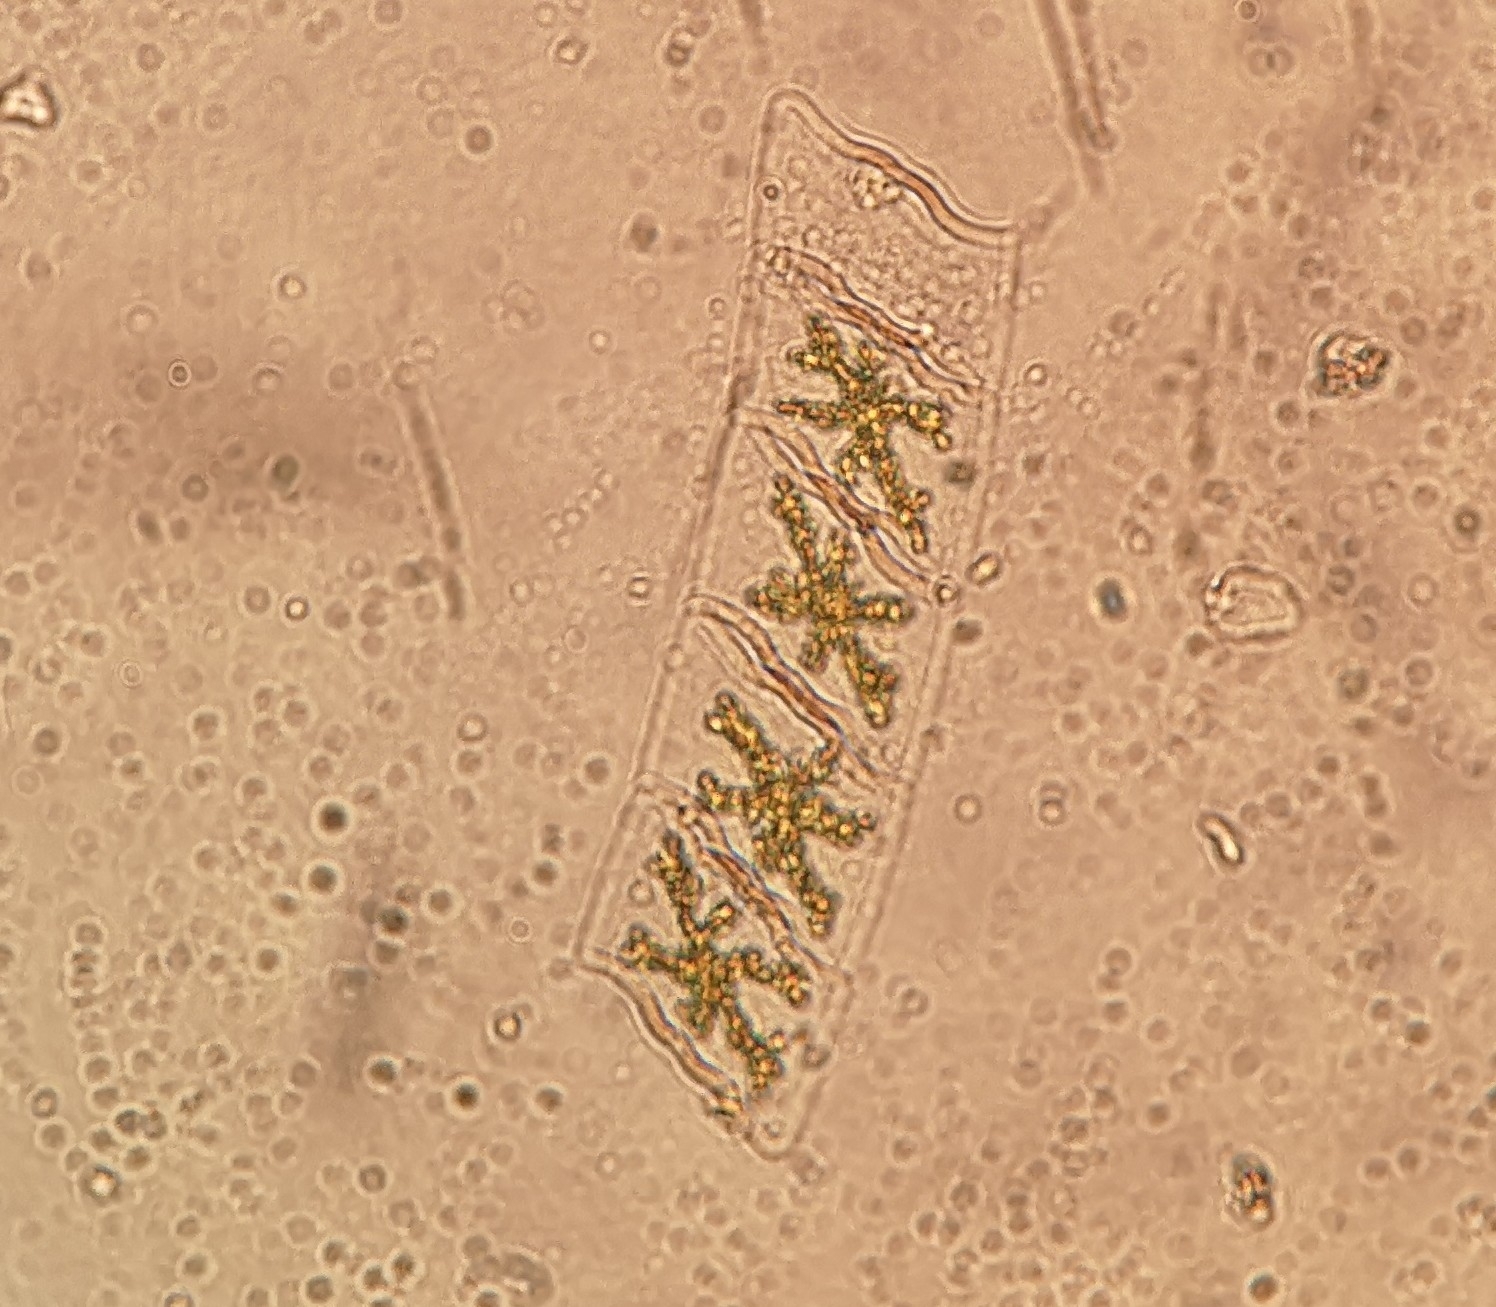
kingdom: Chromista
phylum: Ochrophyta
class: Bacillariophyceae
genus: Mediopyxis
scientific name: Mediopyxis helysia
